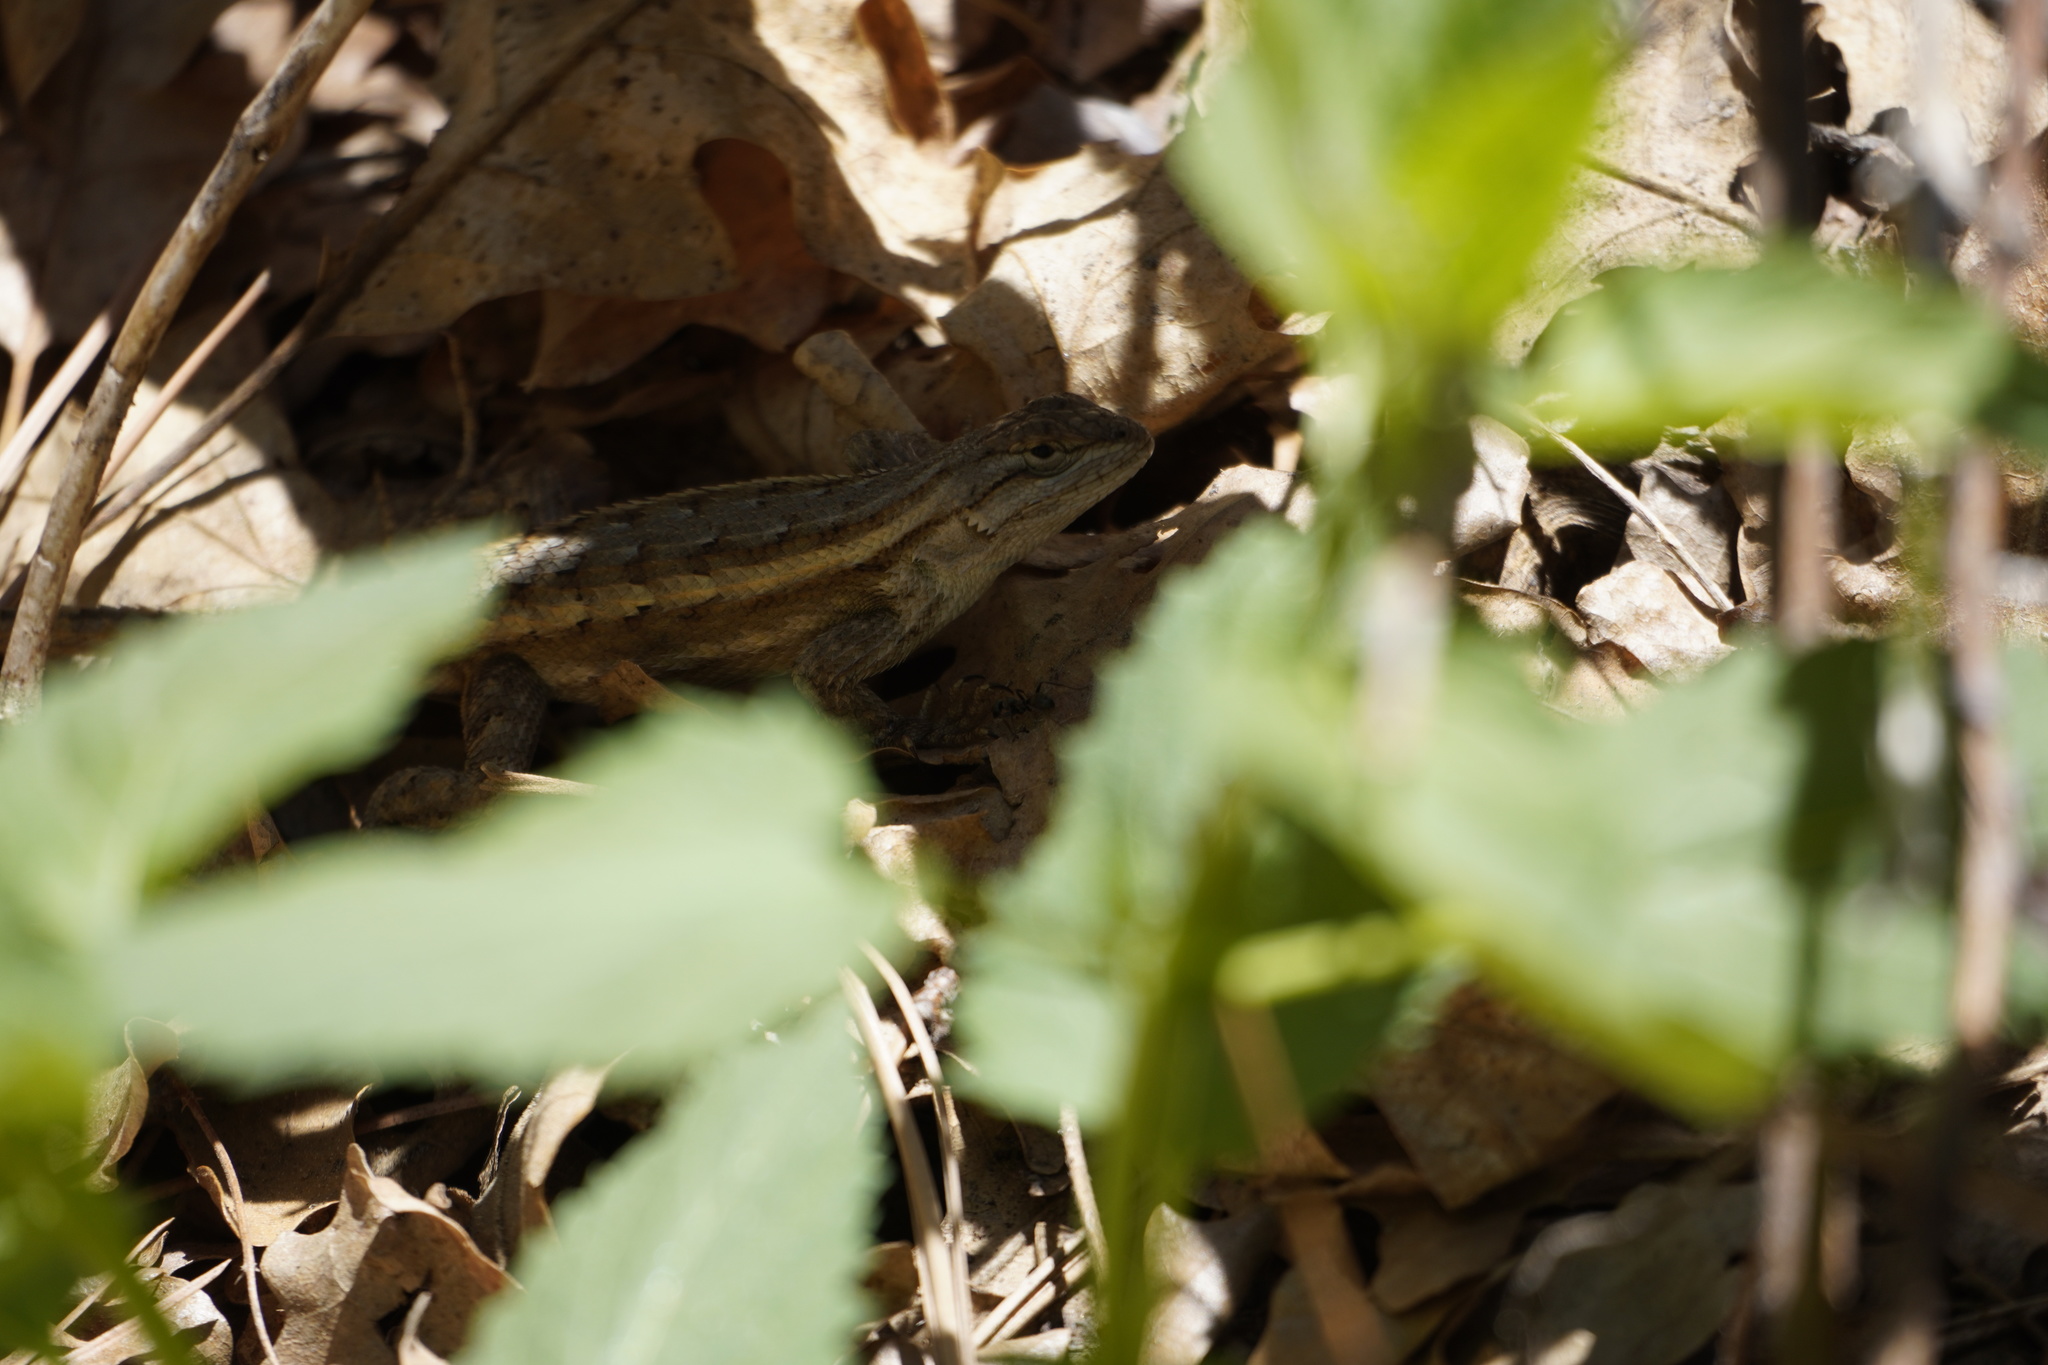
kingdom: Animalia
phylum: Chordata
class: Squamata
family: Phrynosomatidae
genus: Sceloporus
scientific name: Sceloporus tristichus
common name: Plateau fence lizard
